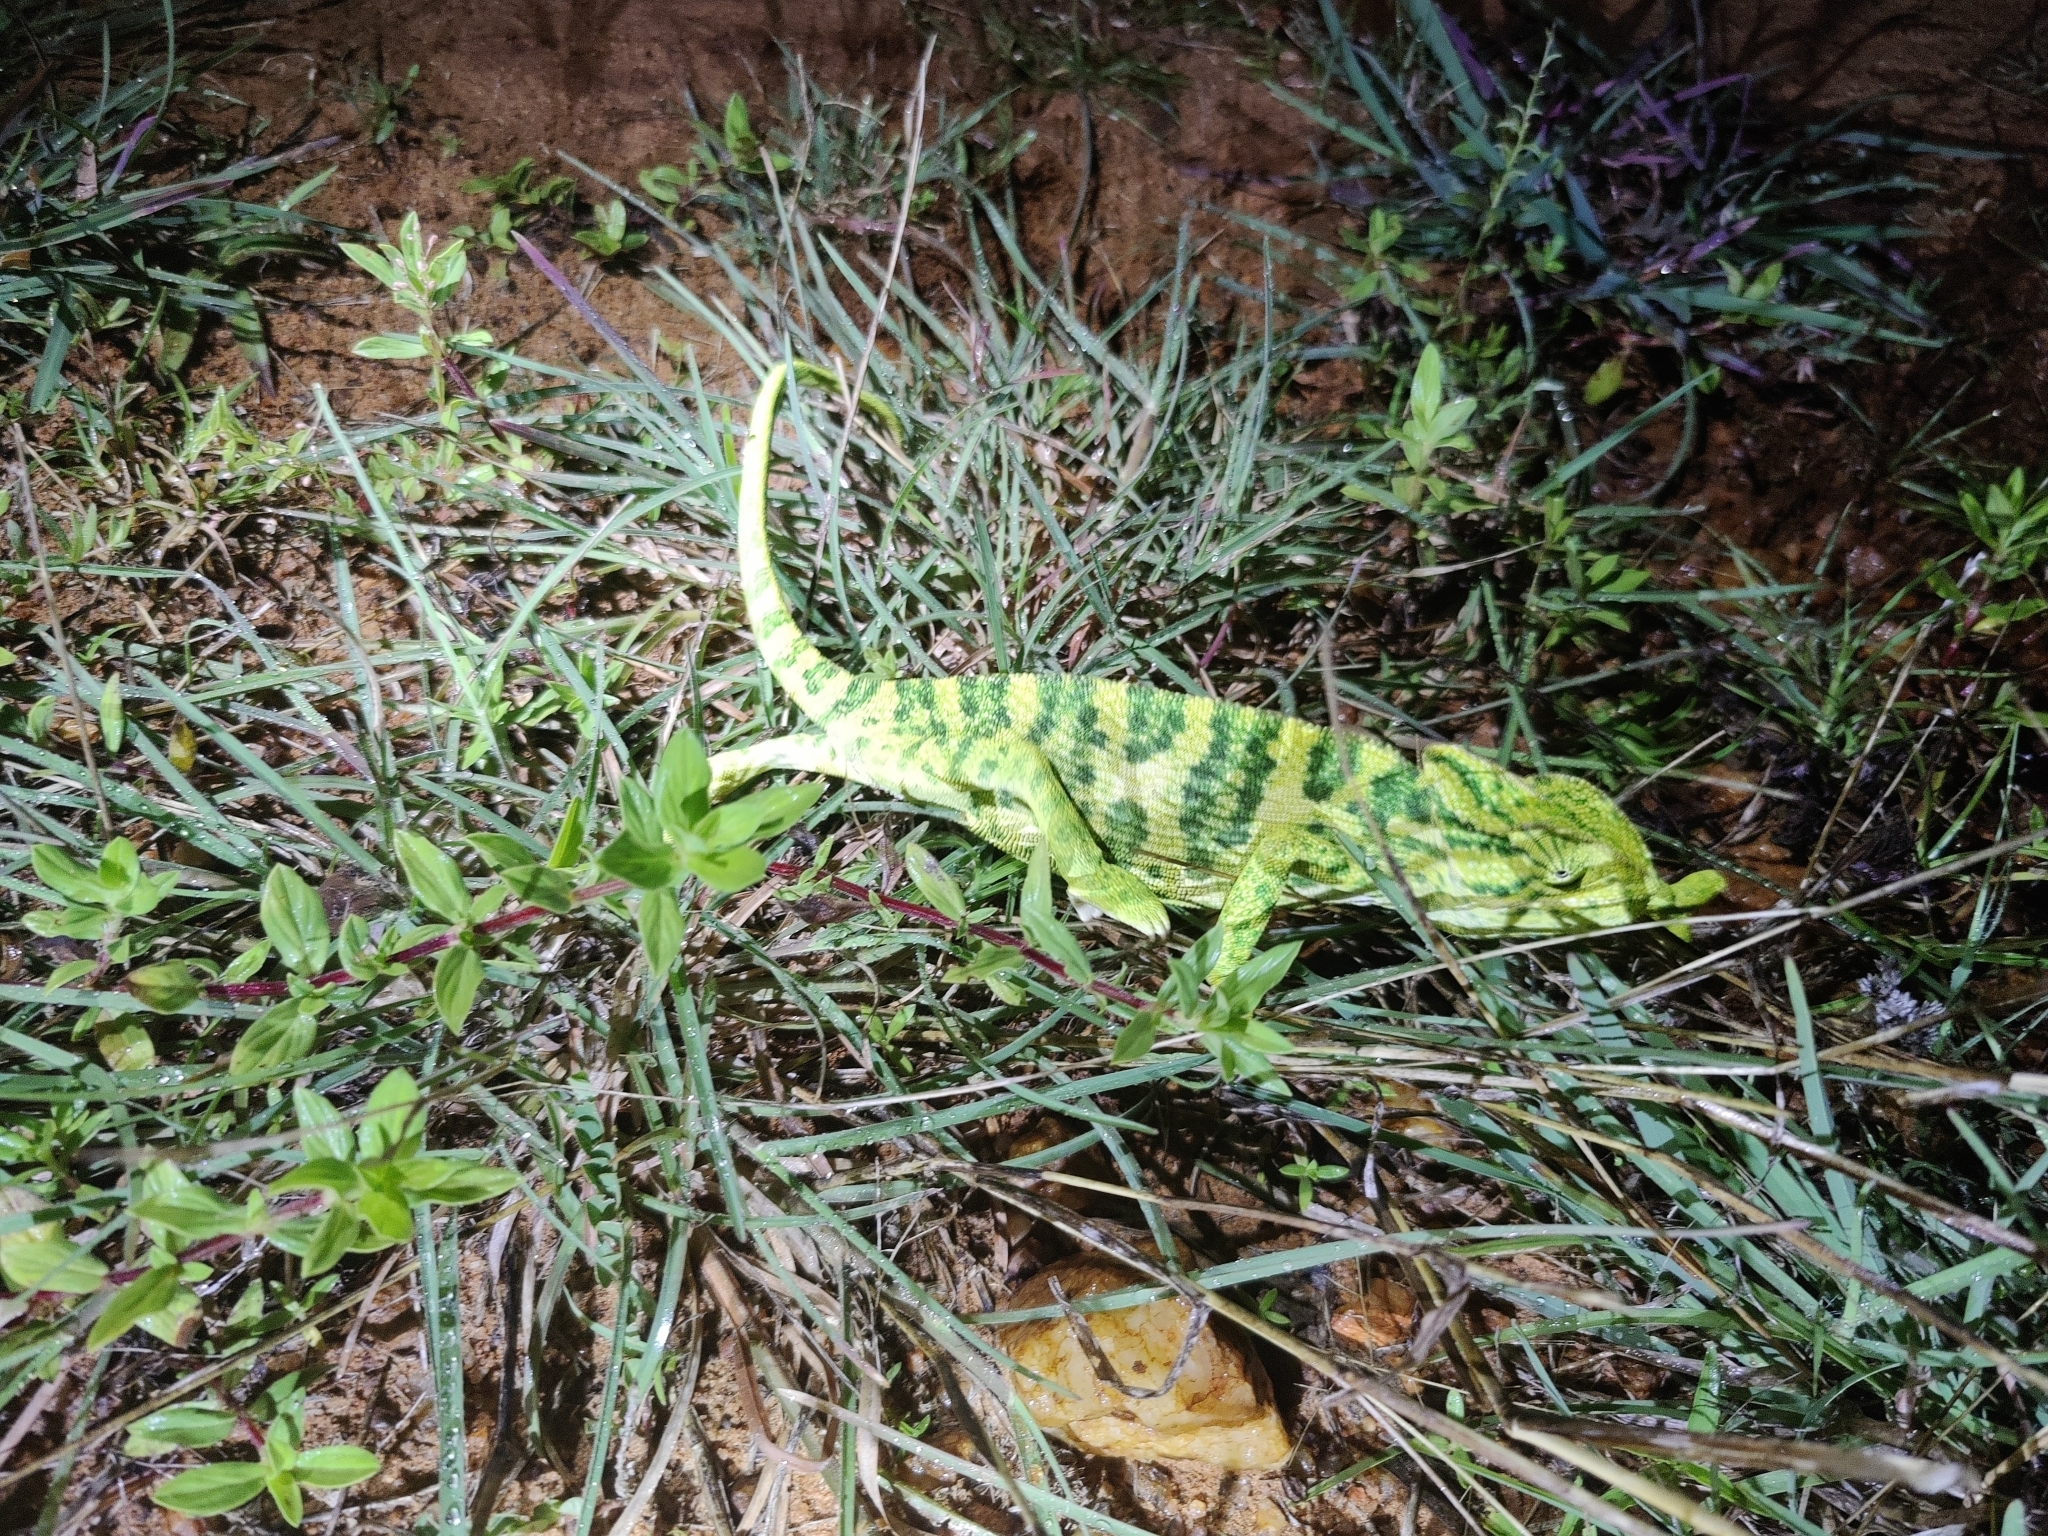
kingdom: Animalia
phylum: Chordata
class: Squamata
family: Chamaeleonidae
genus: Chamaeleo
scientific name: Chamaeleo zeylanicus
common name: Indian chameleon
